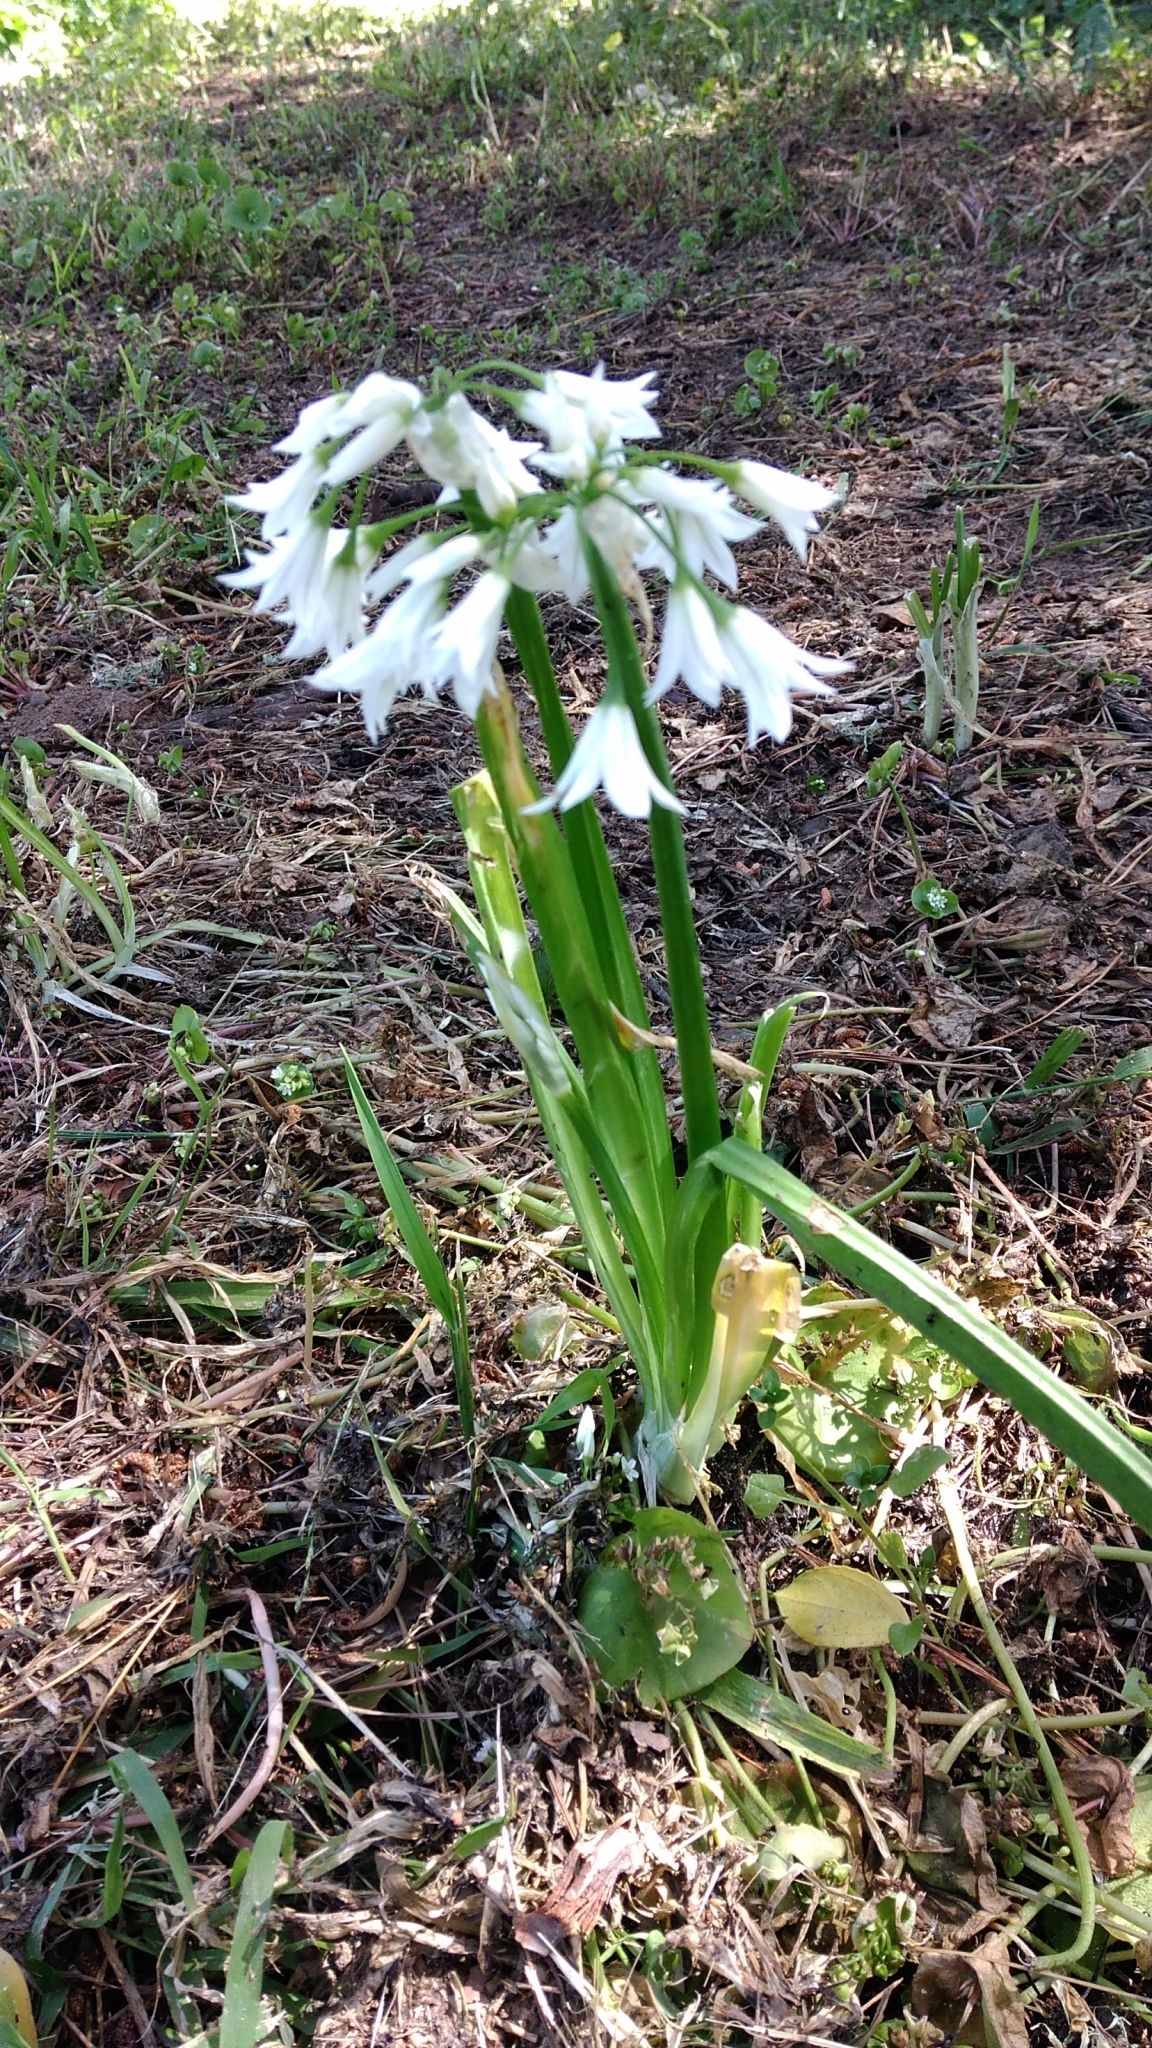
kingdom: Plantae
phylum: Tracheophyta
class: Liliopsida
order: Asparagales
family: Amaryllidaceae
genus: Allium
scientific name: Allium triquetrum
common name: Three-cornered garlic
